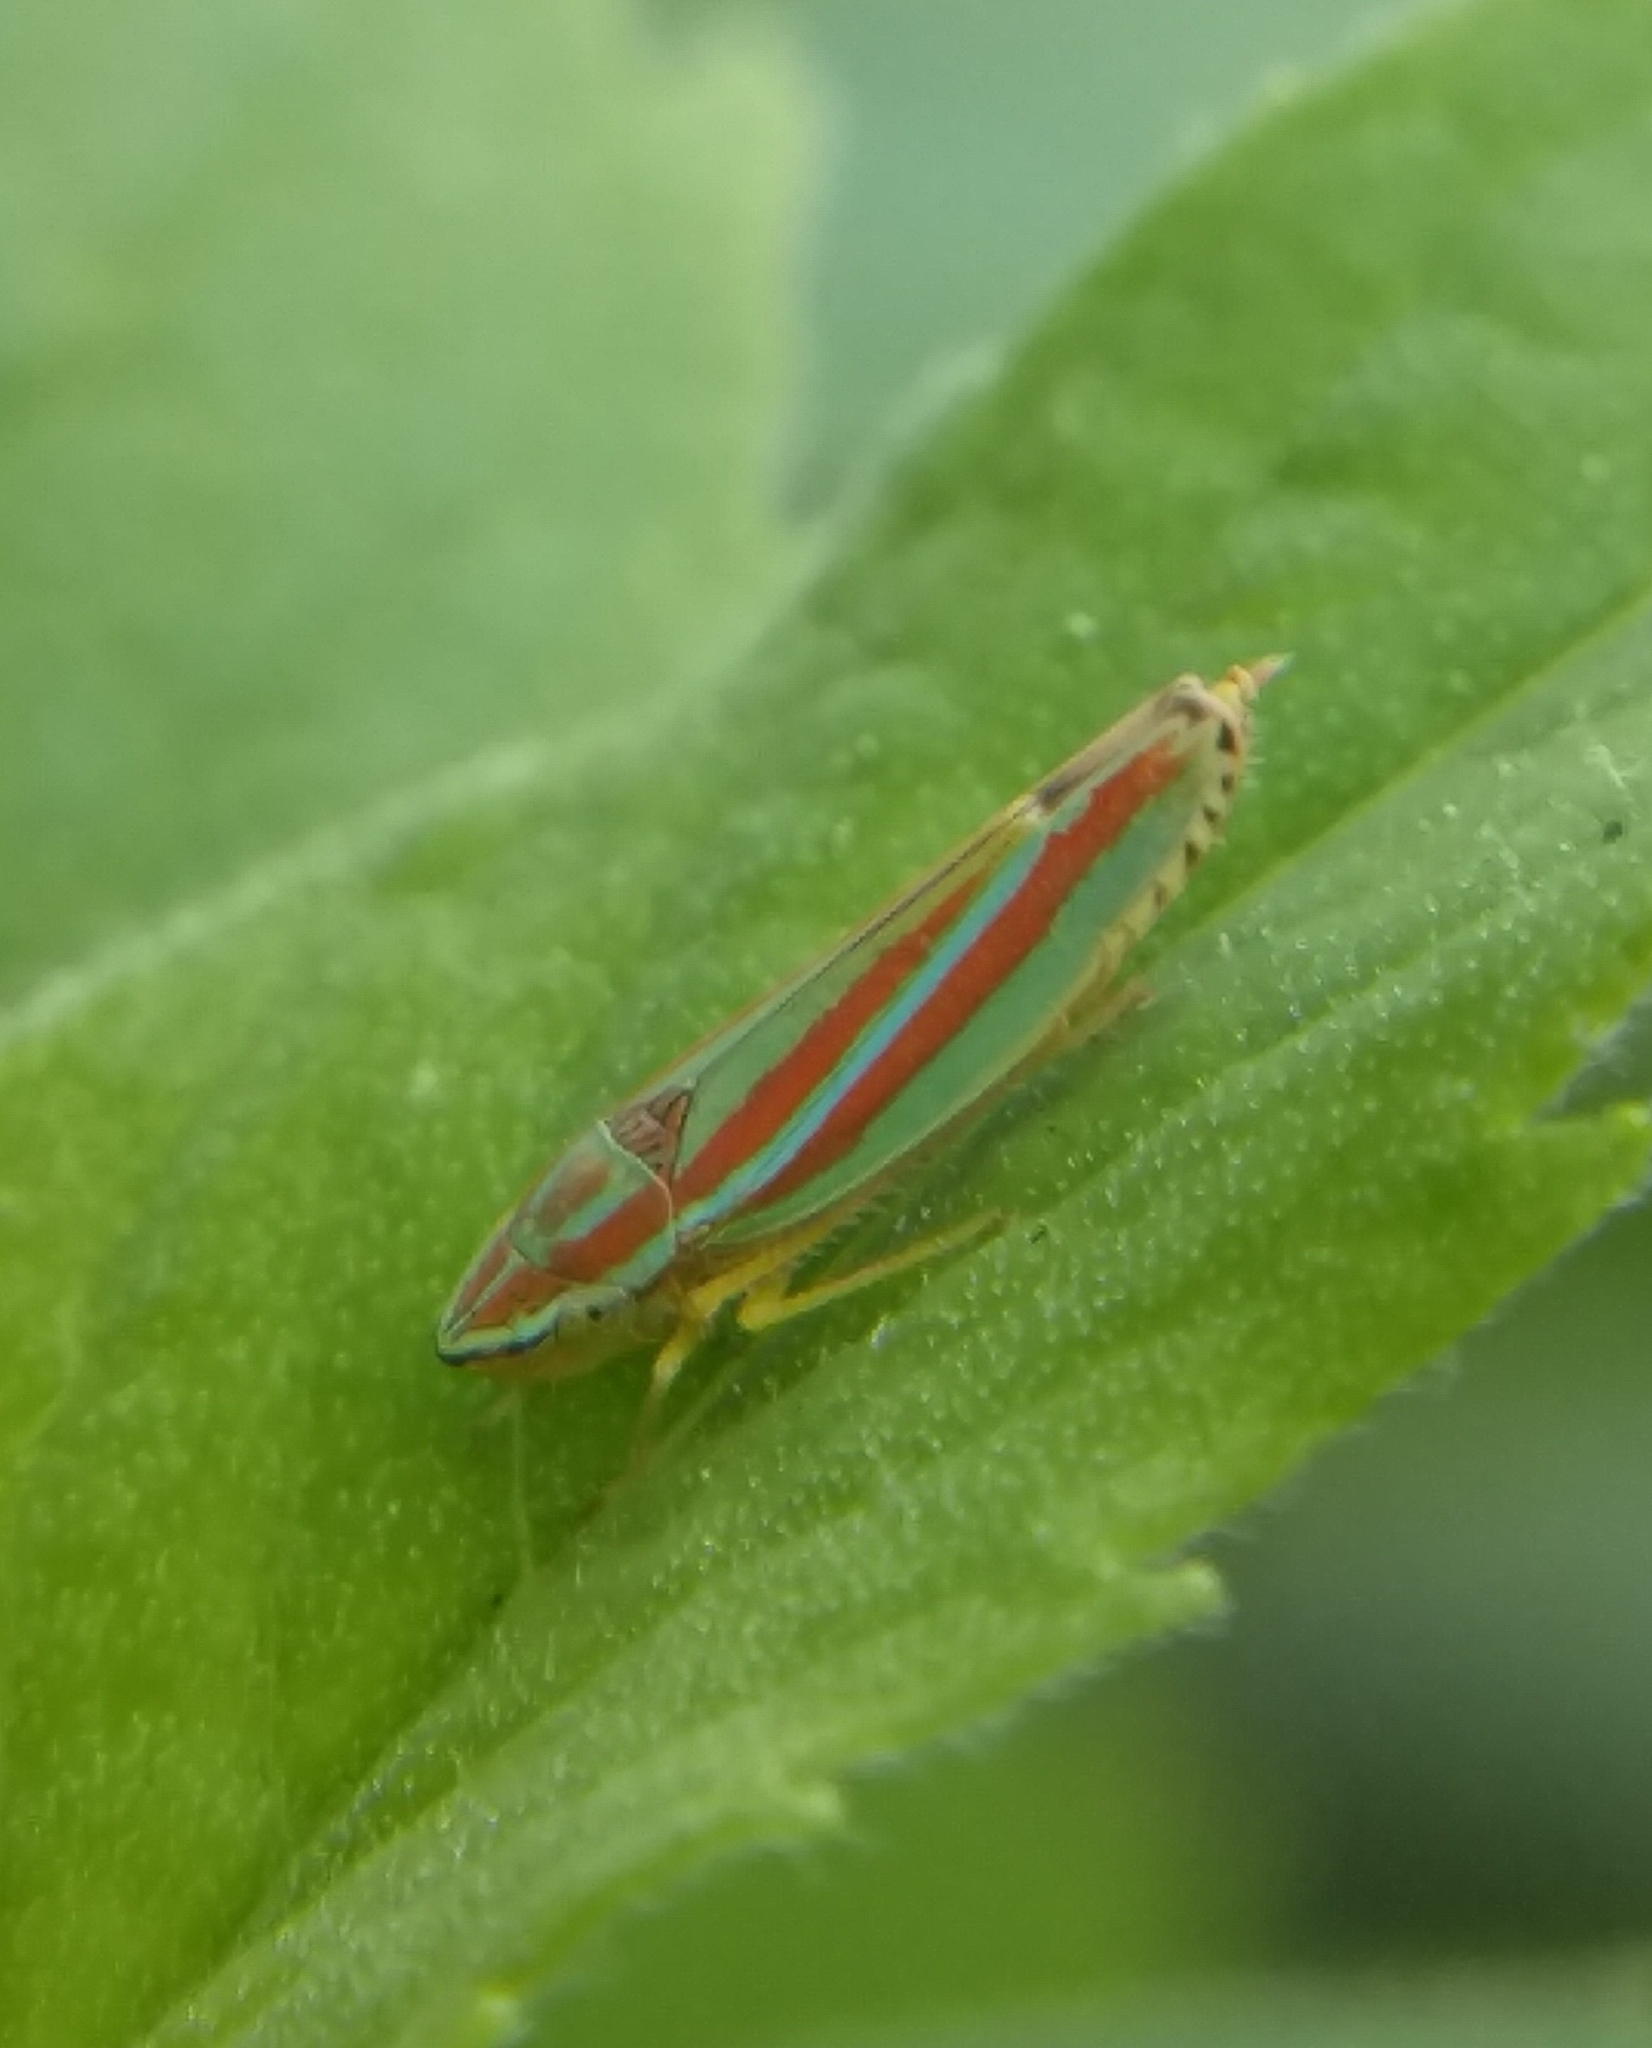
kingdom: Animalia
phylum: Arthropoda
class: Insecta
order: Hemiptera
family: Cicadellidae
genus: Graphocephala
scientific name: Graphocephala coccinea
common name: Candy-striped leafhopper
